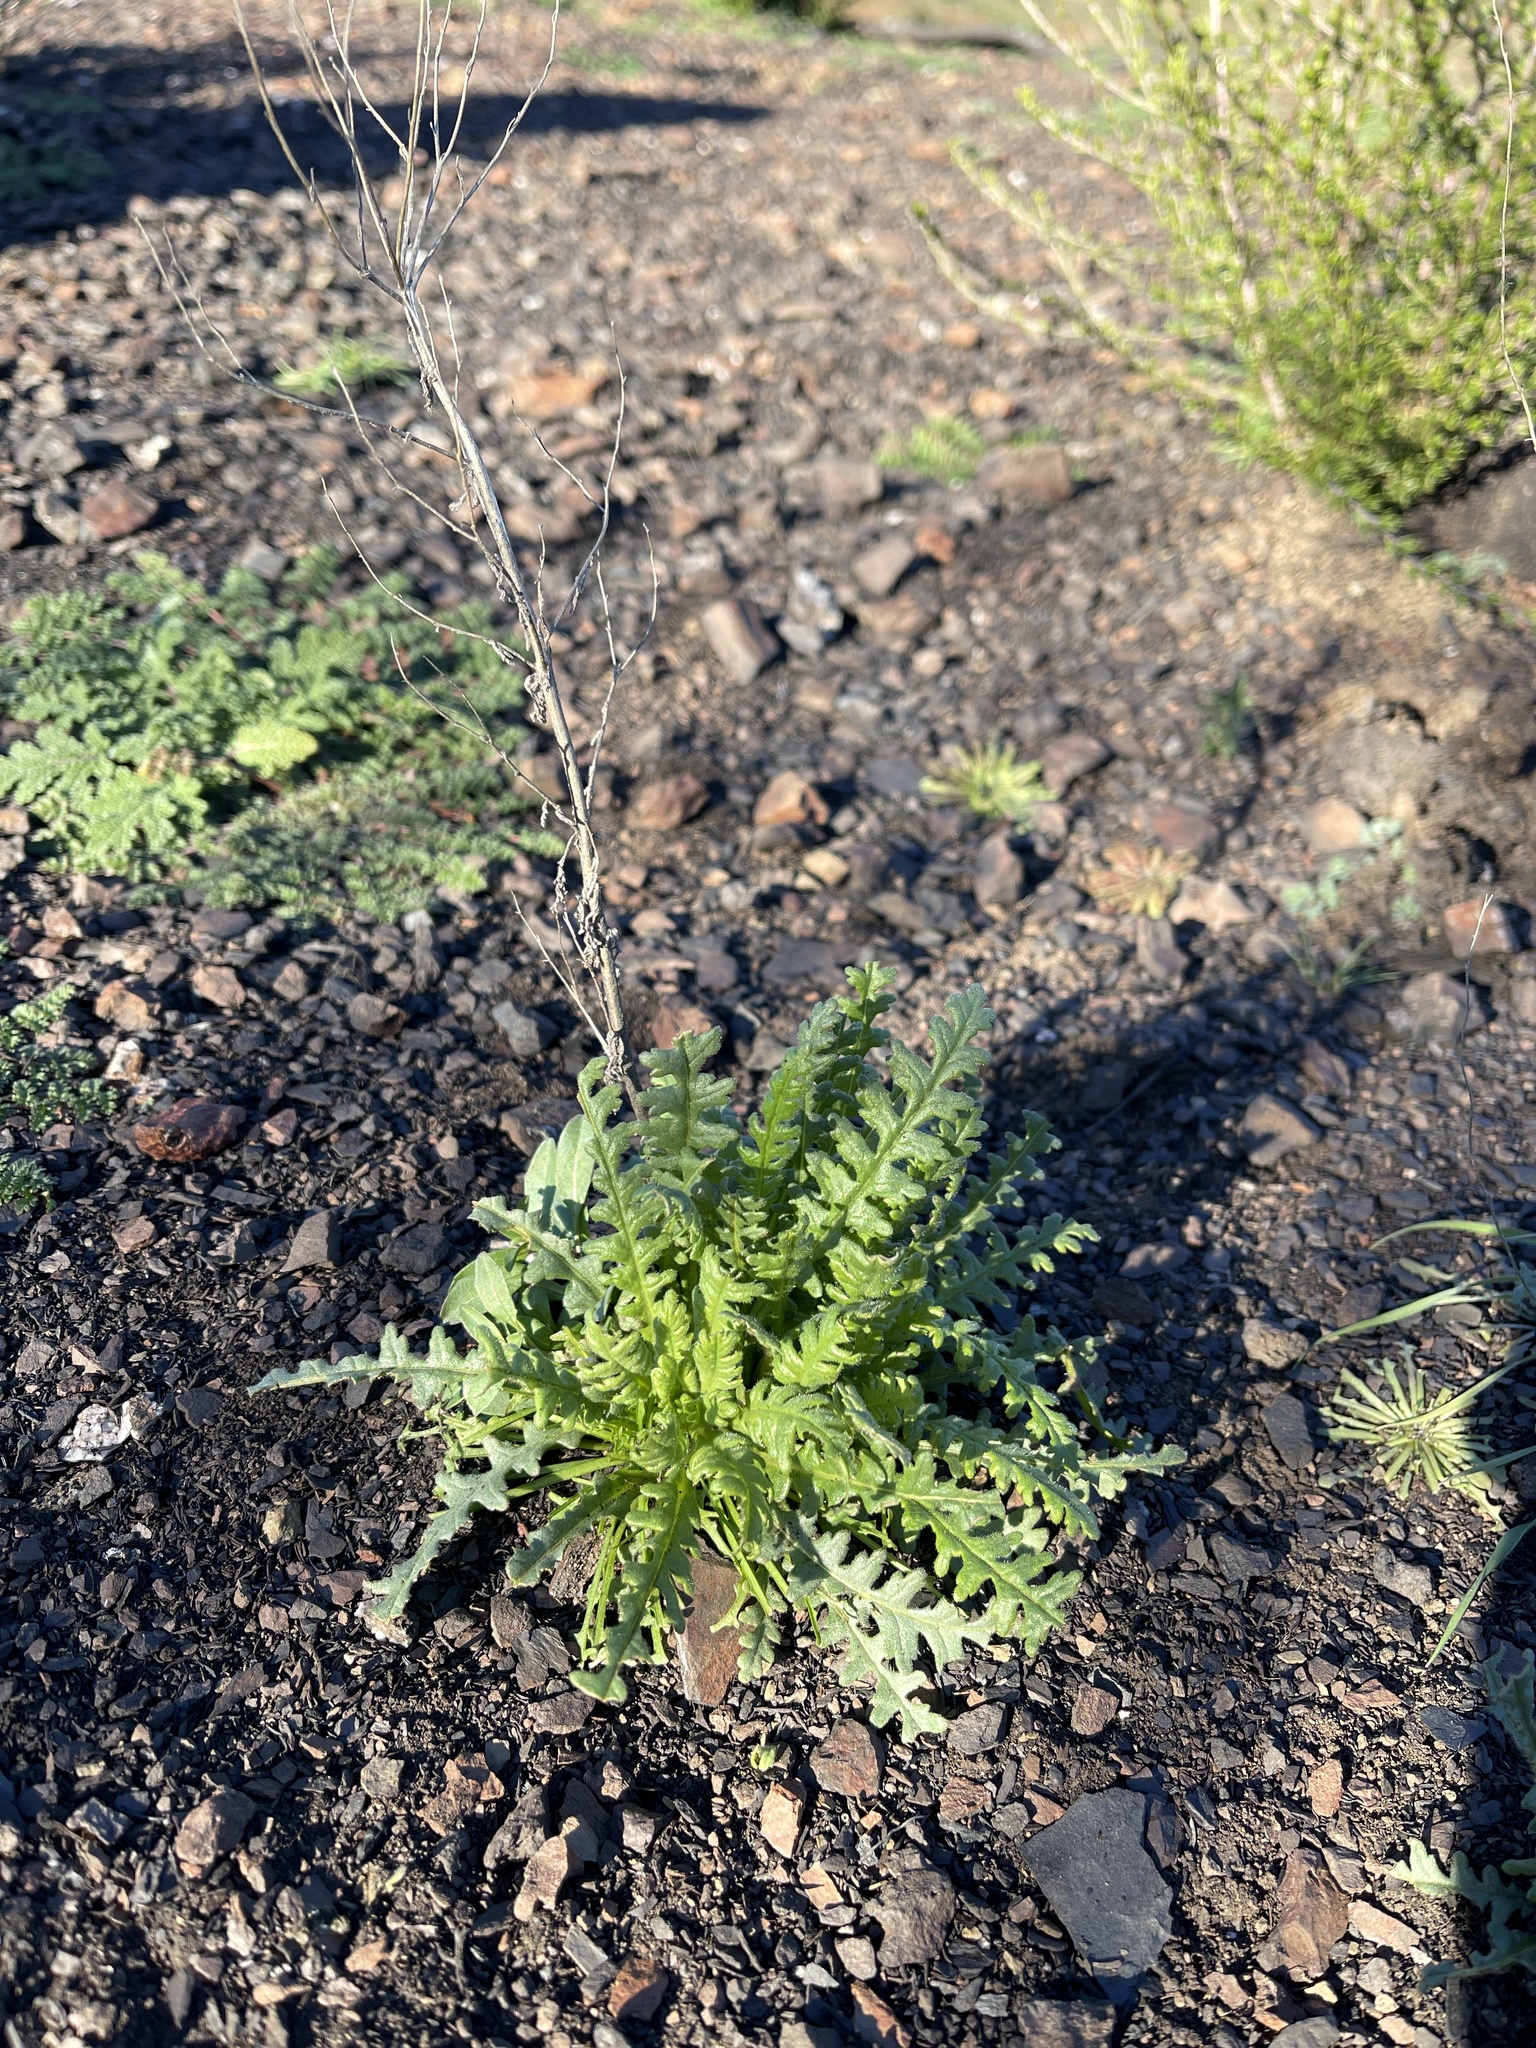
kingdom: Plantae
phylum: Tracheophyta
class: Magnoliopsida
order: Boraginales
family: Hydrophyllaceae
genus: Emmenanthe
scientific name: Emmenanthe penduliflora
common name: Whispering-bells
